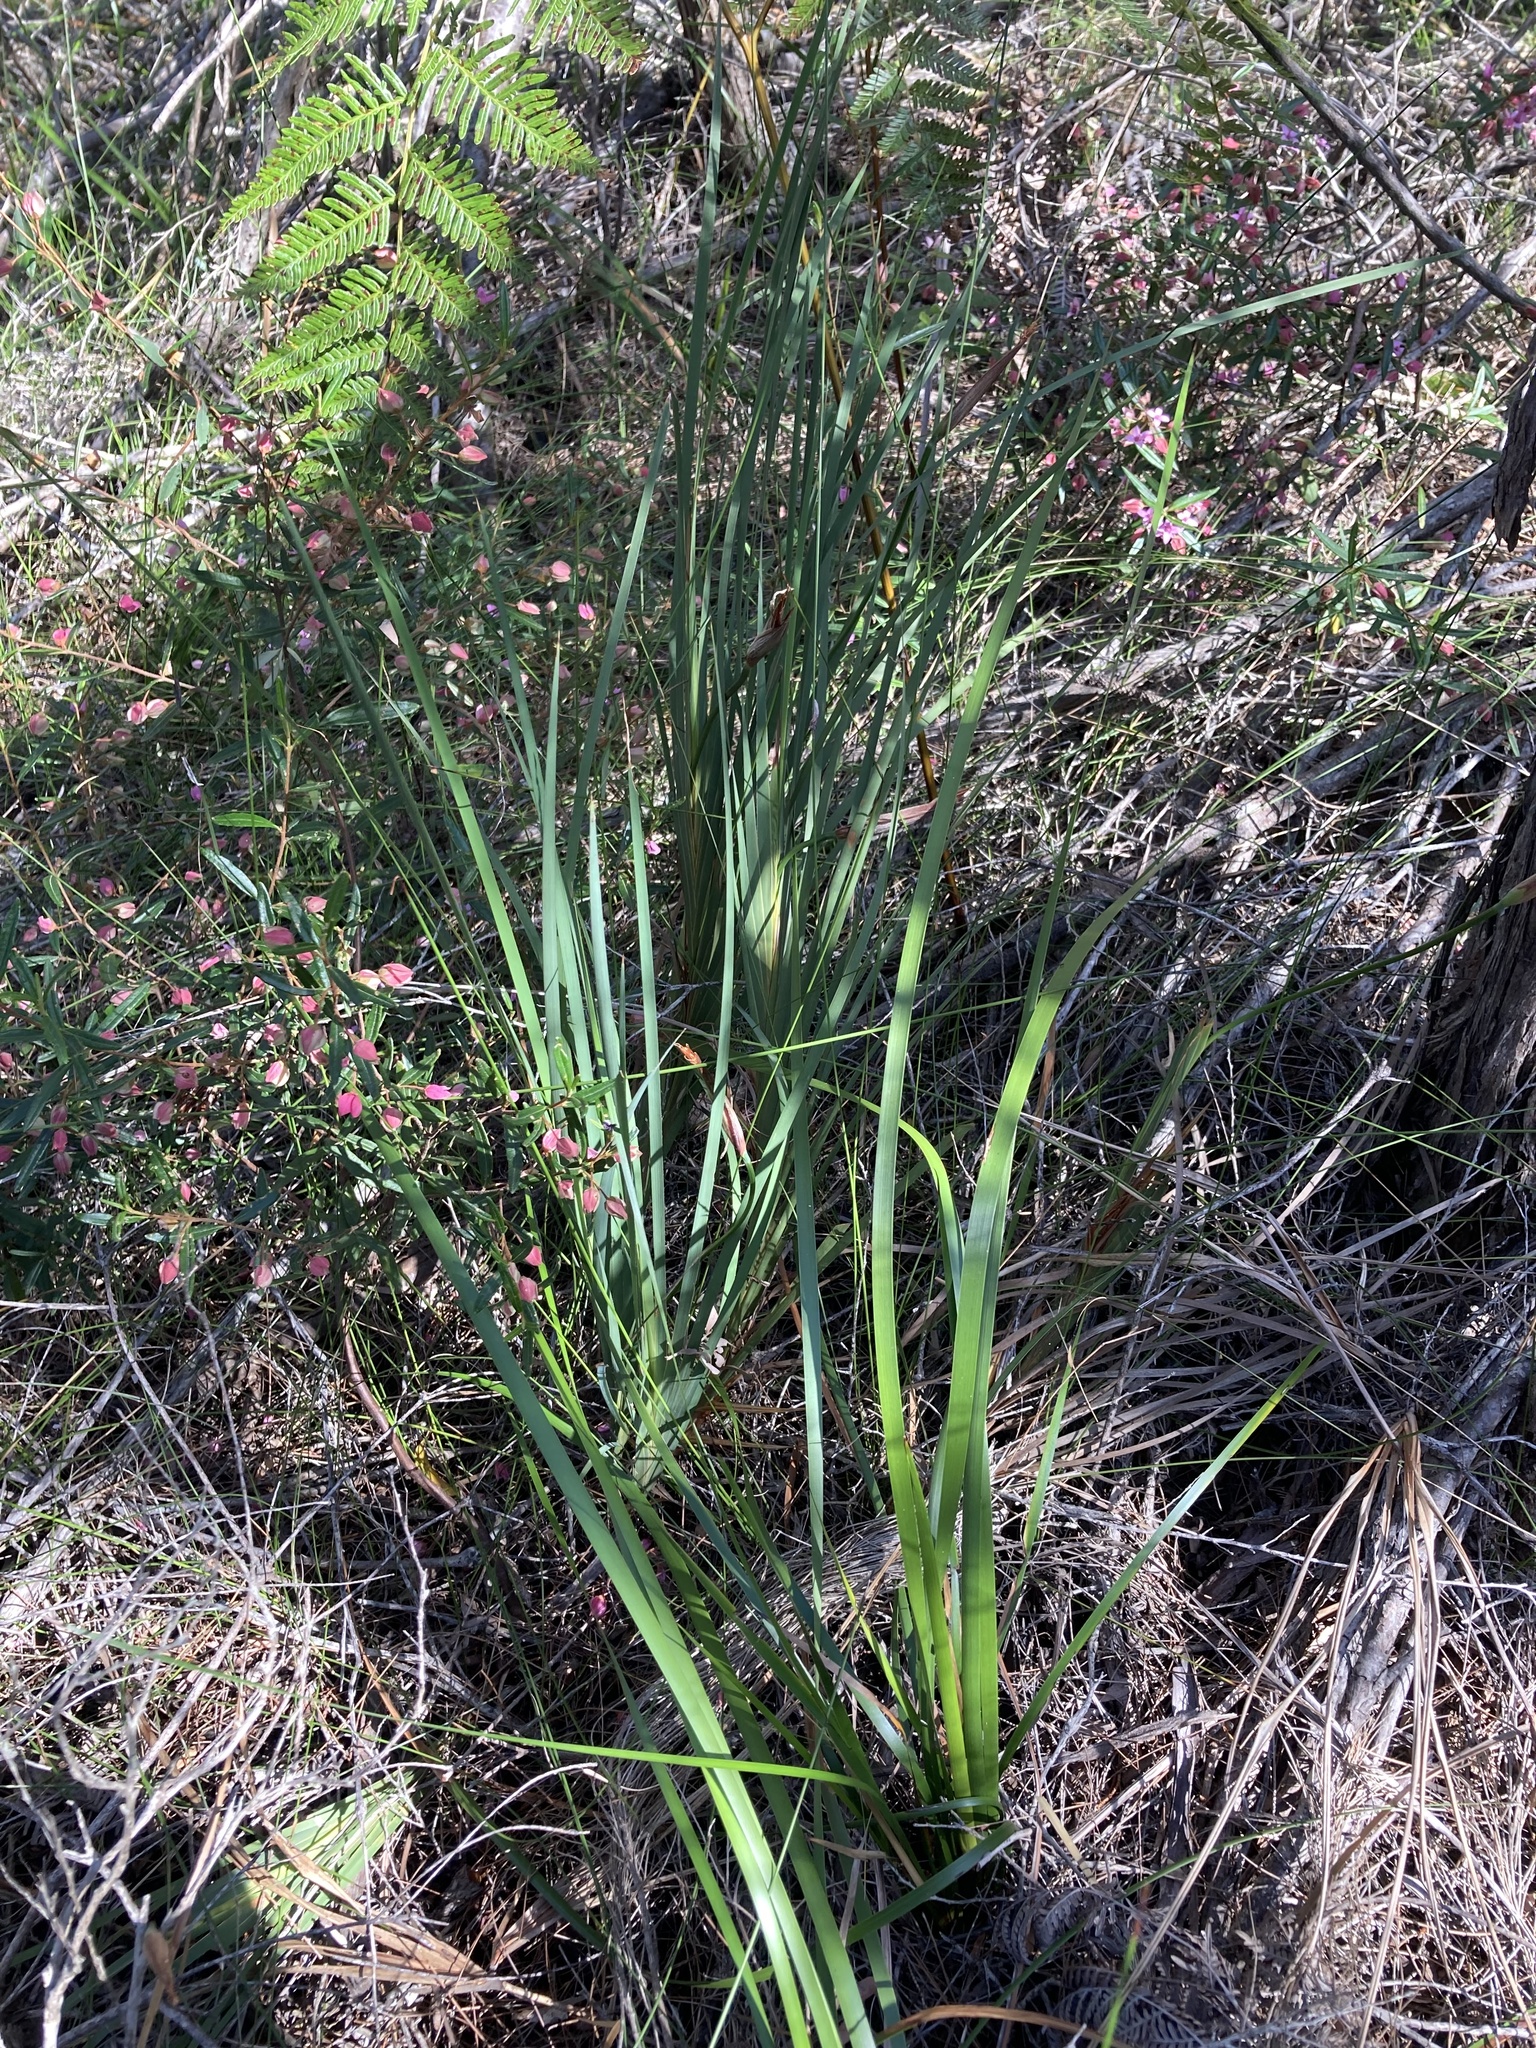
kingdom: Plantae
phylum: Tracheophyta
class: Liliopsida
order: Asparagales
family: Iridaceae
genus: Patersonia
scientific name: Patersonia glabrata
